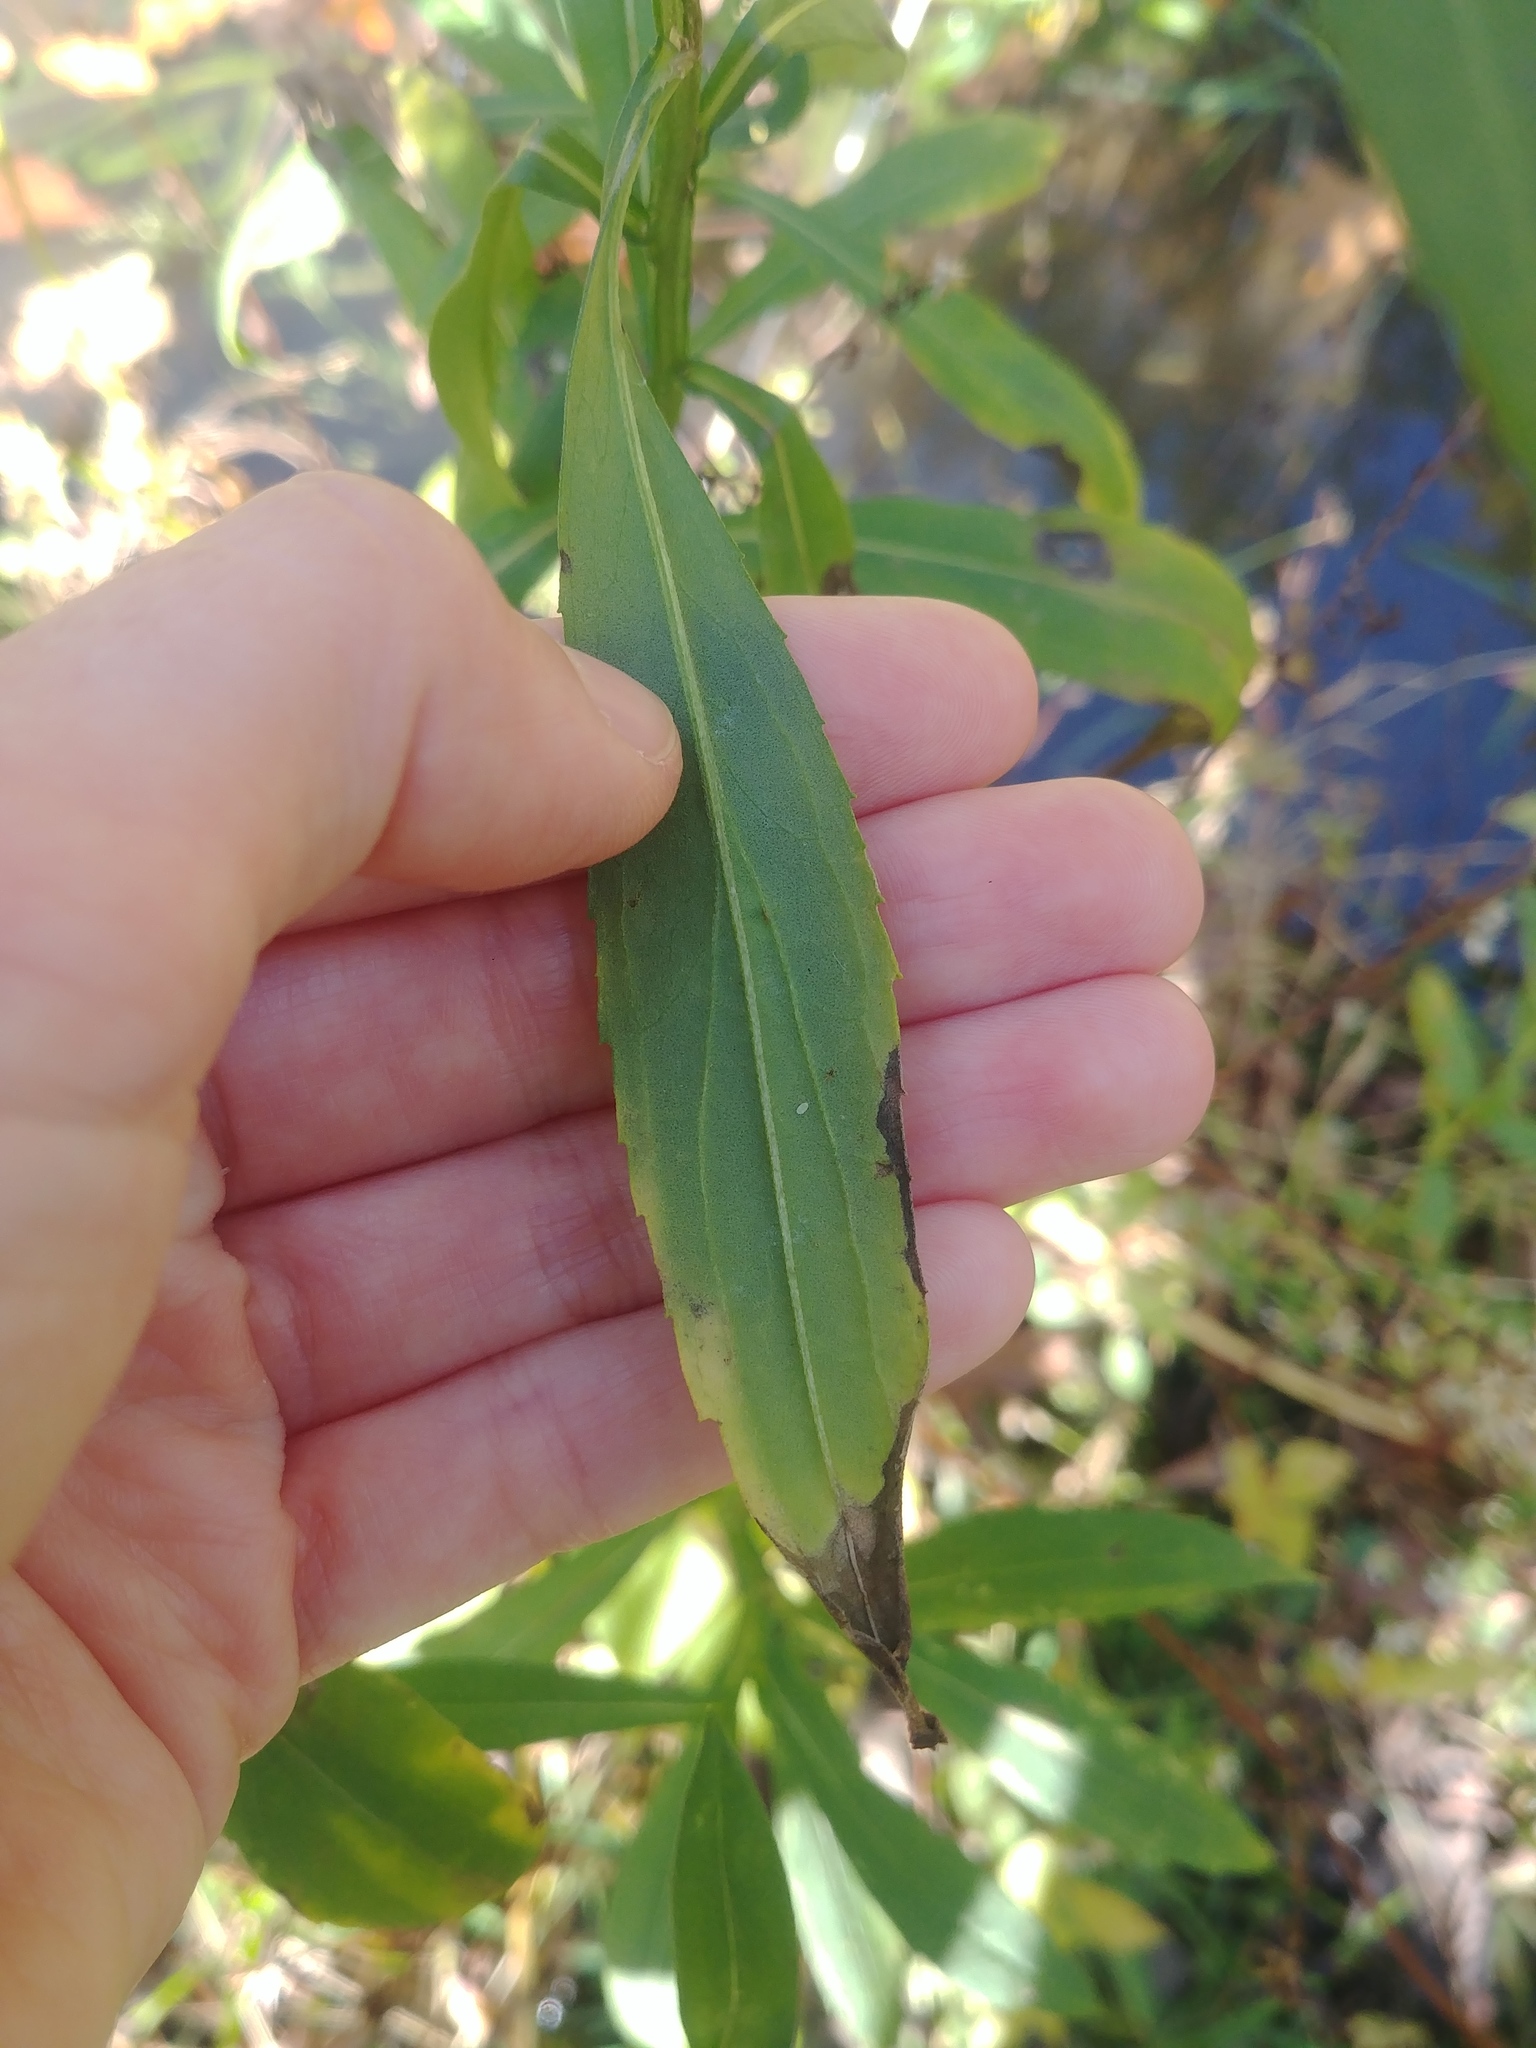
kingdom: Plantae
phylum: Tracheophyta
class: Magnoliopsida
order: Asterales
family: Asteraceae
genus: Helenium
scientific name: Helenium autumnale
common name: Sneezeweed
